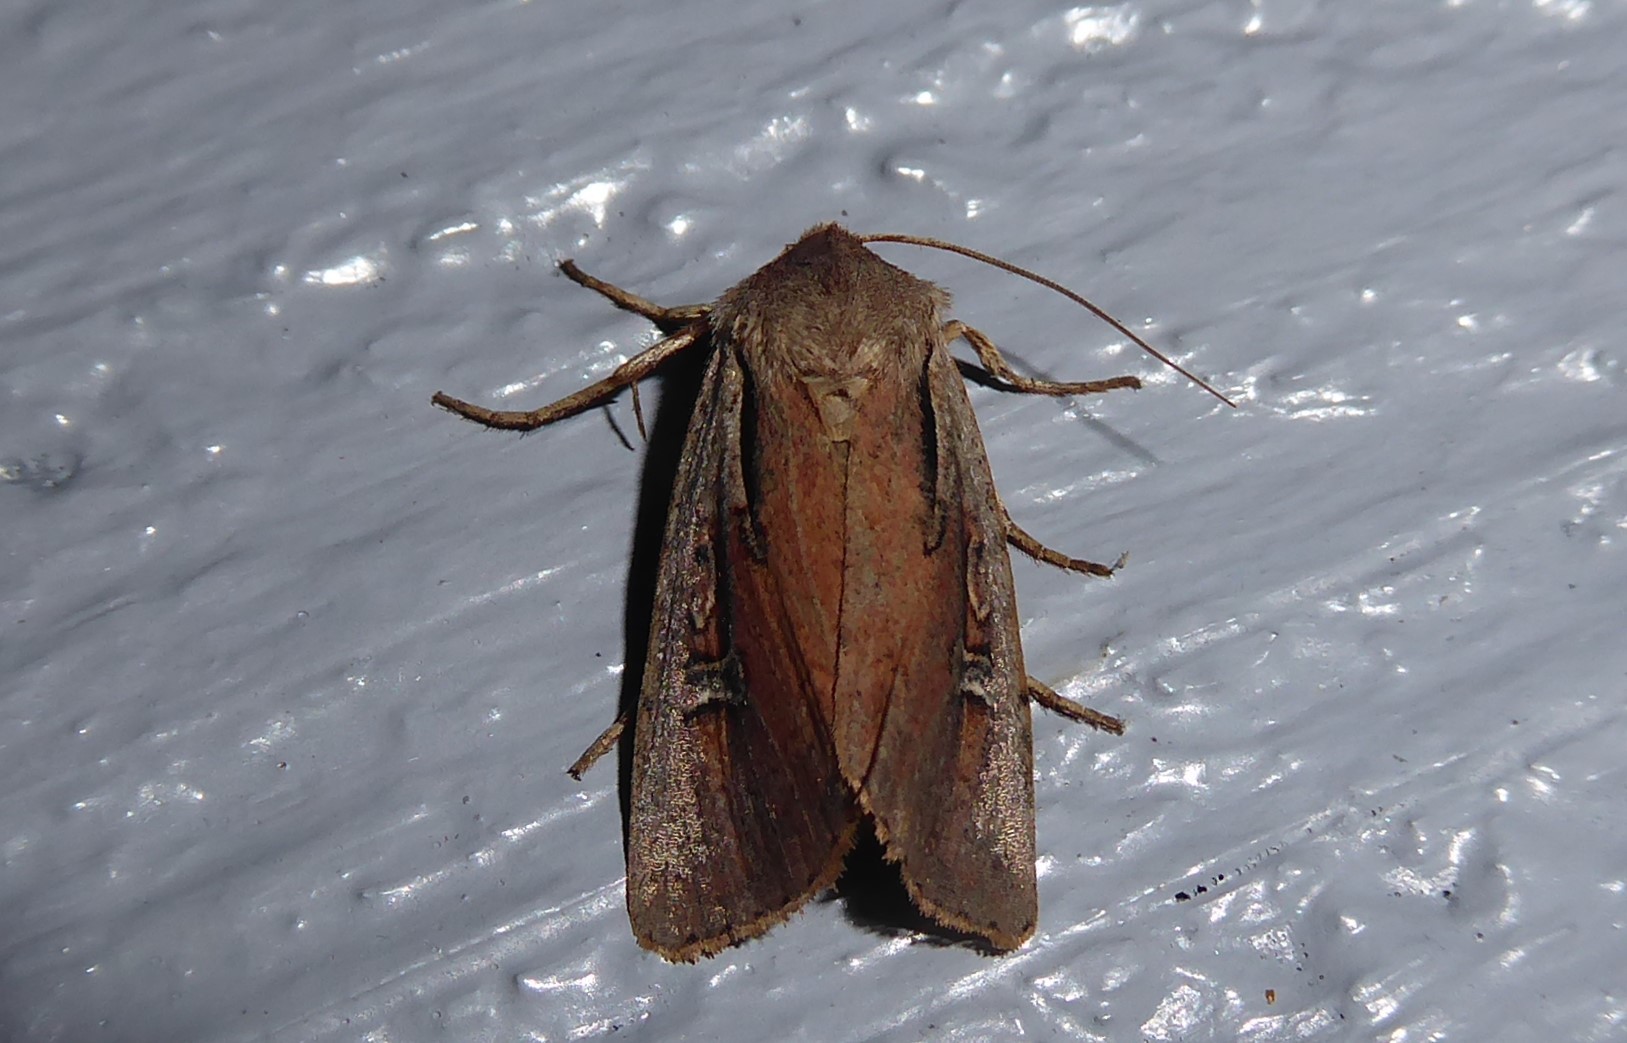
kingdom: Animalia
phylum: Arthropoda
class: Insecta
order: Lepidoptera
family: Noctuidae
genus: Ichneutica
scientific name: Ichneutica atristriga
